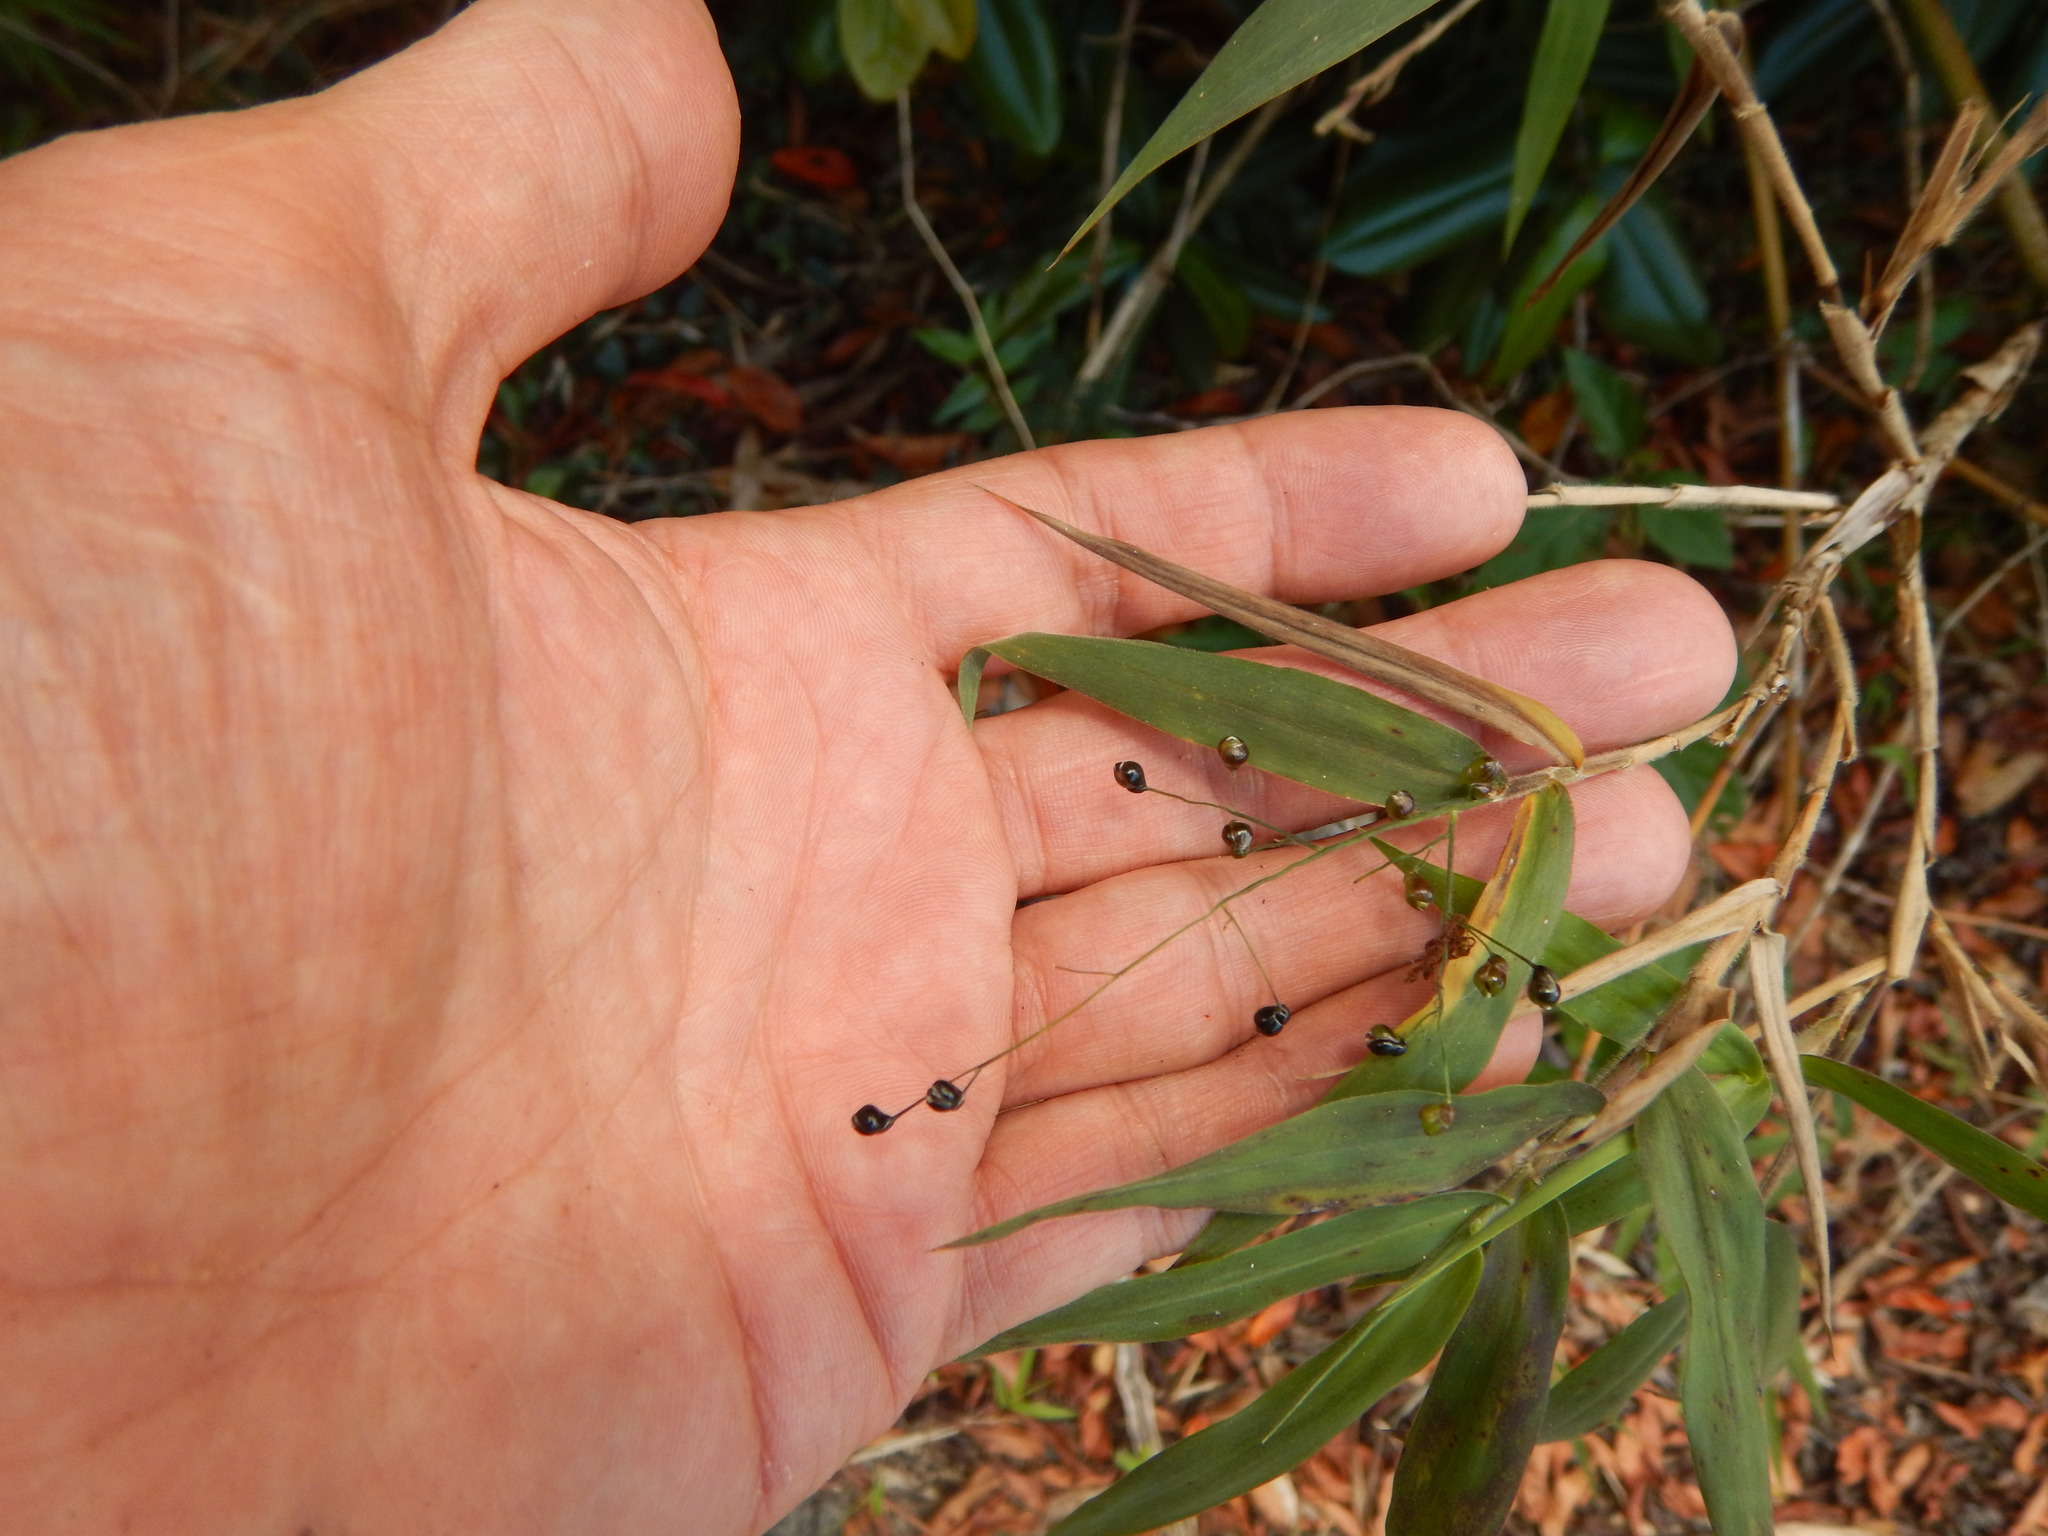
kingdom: Plantae
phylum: Tracheophyta
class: Liliopsida
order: Poales
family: Poaceae
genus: Lasiacis
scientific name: Lasiacis divaricata
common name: Smallcane
